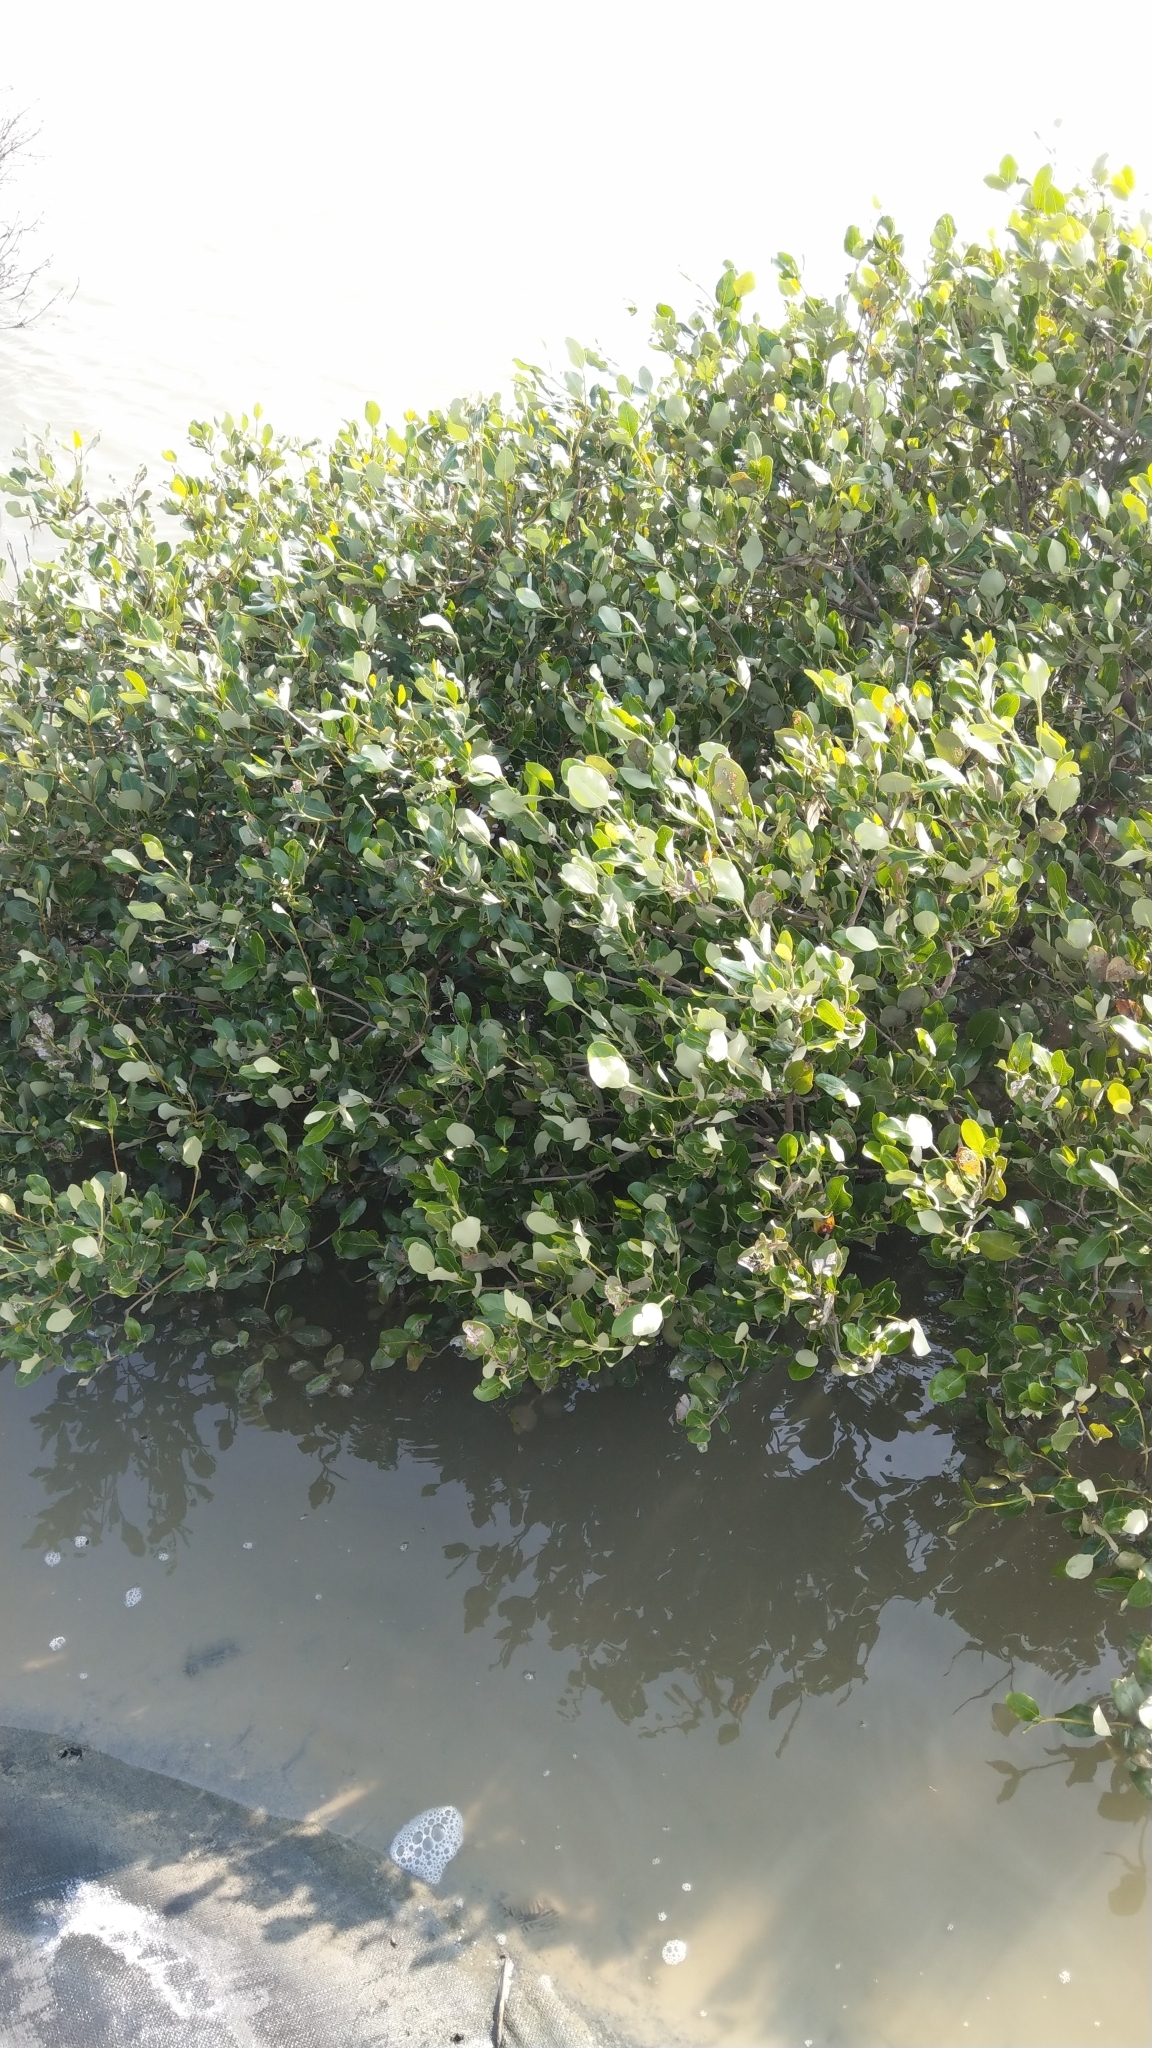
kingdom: Plantae
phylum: Tracheophyta
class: Magnoliopsida
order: Lamiales
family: Acanthaceae
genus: Avicennia
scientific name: Avicennia marina
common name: Gray mangrove
